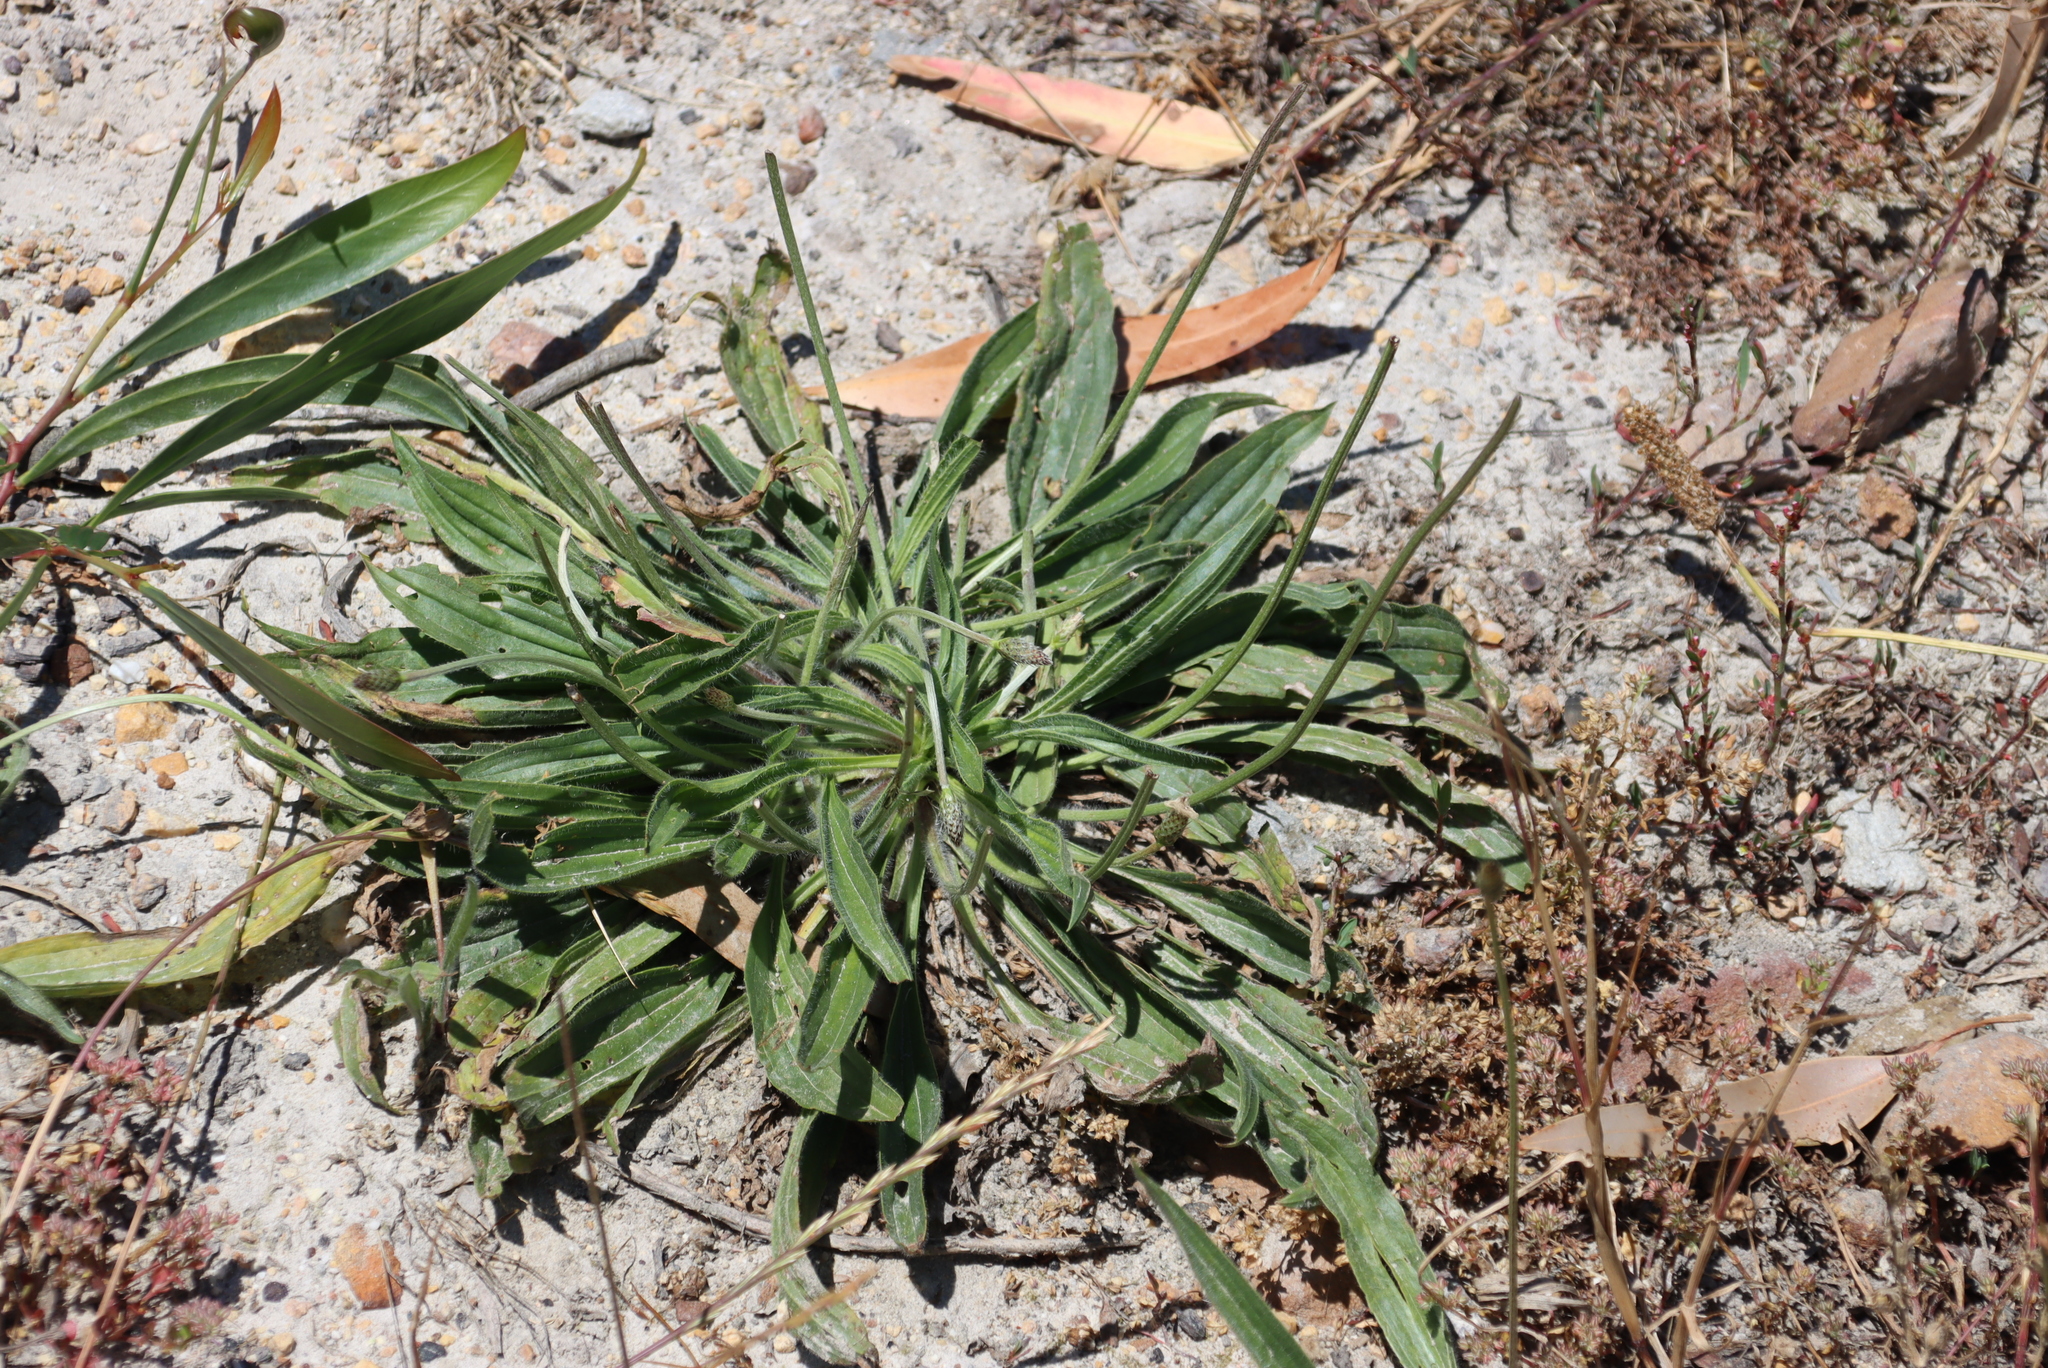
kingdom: Plantae
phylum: Tracheophyta
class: Magnoliopsida
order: Lamiales
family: Plantaginaceae
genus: Plantago
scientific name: Plantago lanceolata
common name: Ribwort plantain
